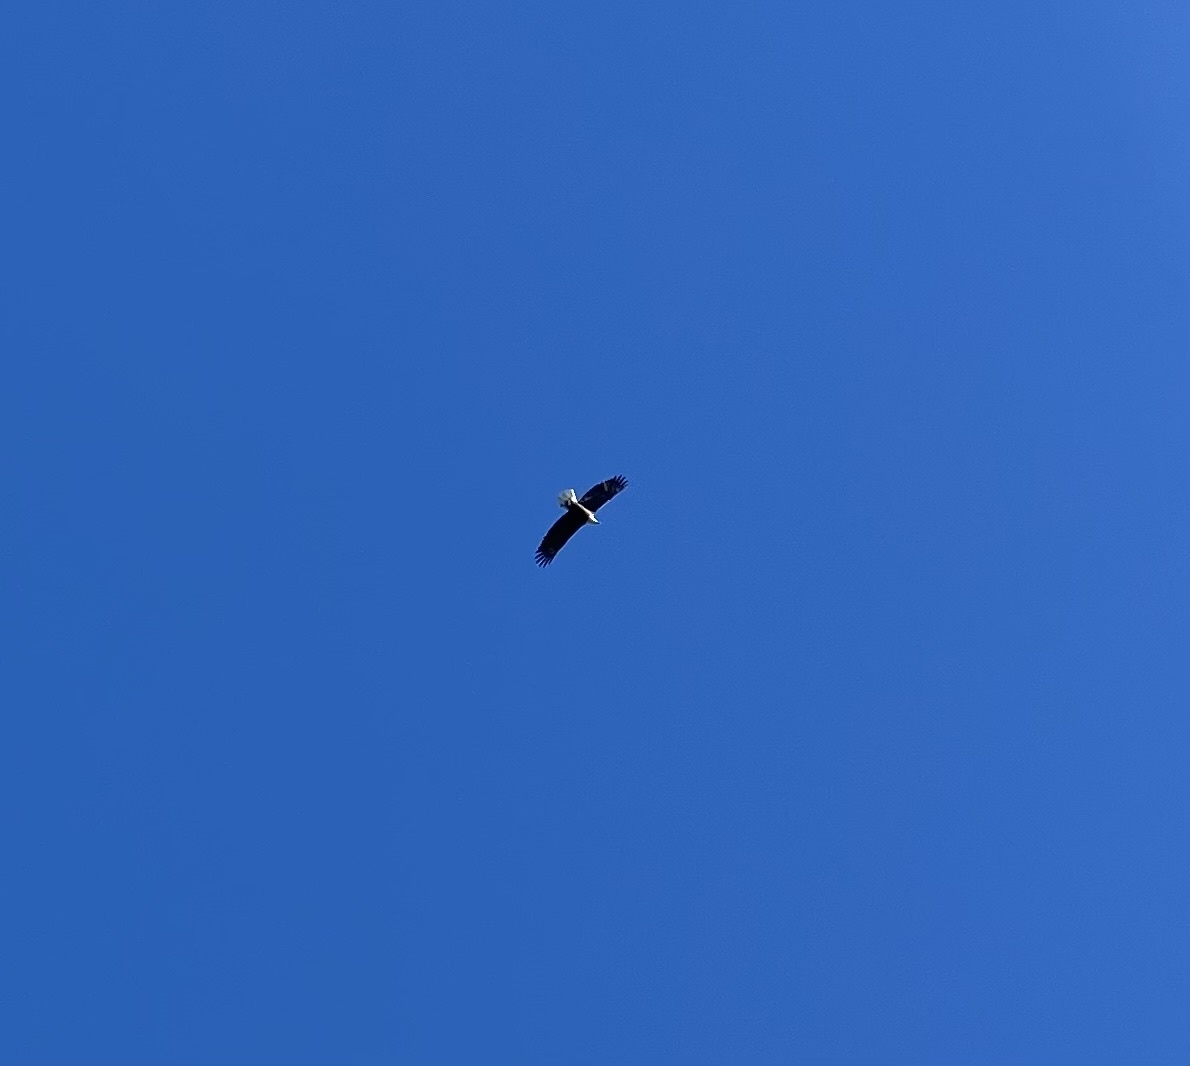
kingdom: Animalia
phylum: Chordata
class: Aves
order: Accipitriformes
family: Accipitridae
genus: Haliaeetus
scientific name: Haliaeetus leucocephalus
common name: Bald eagle
